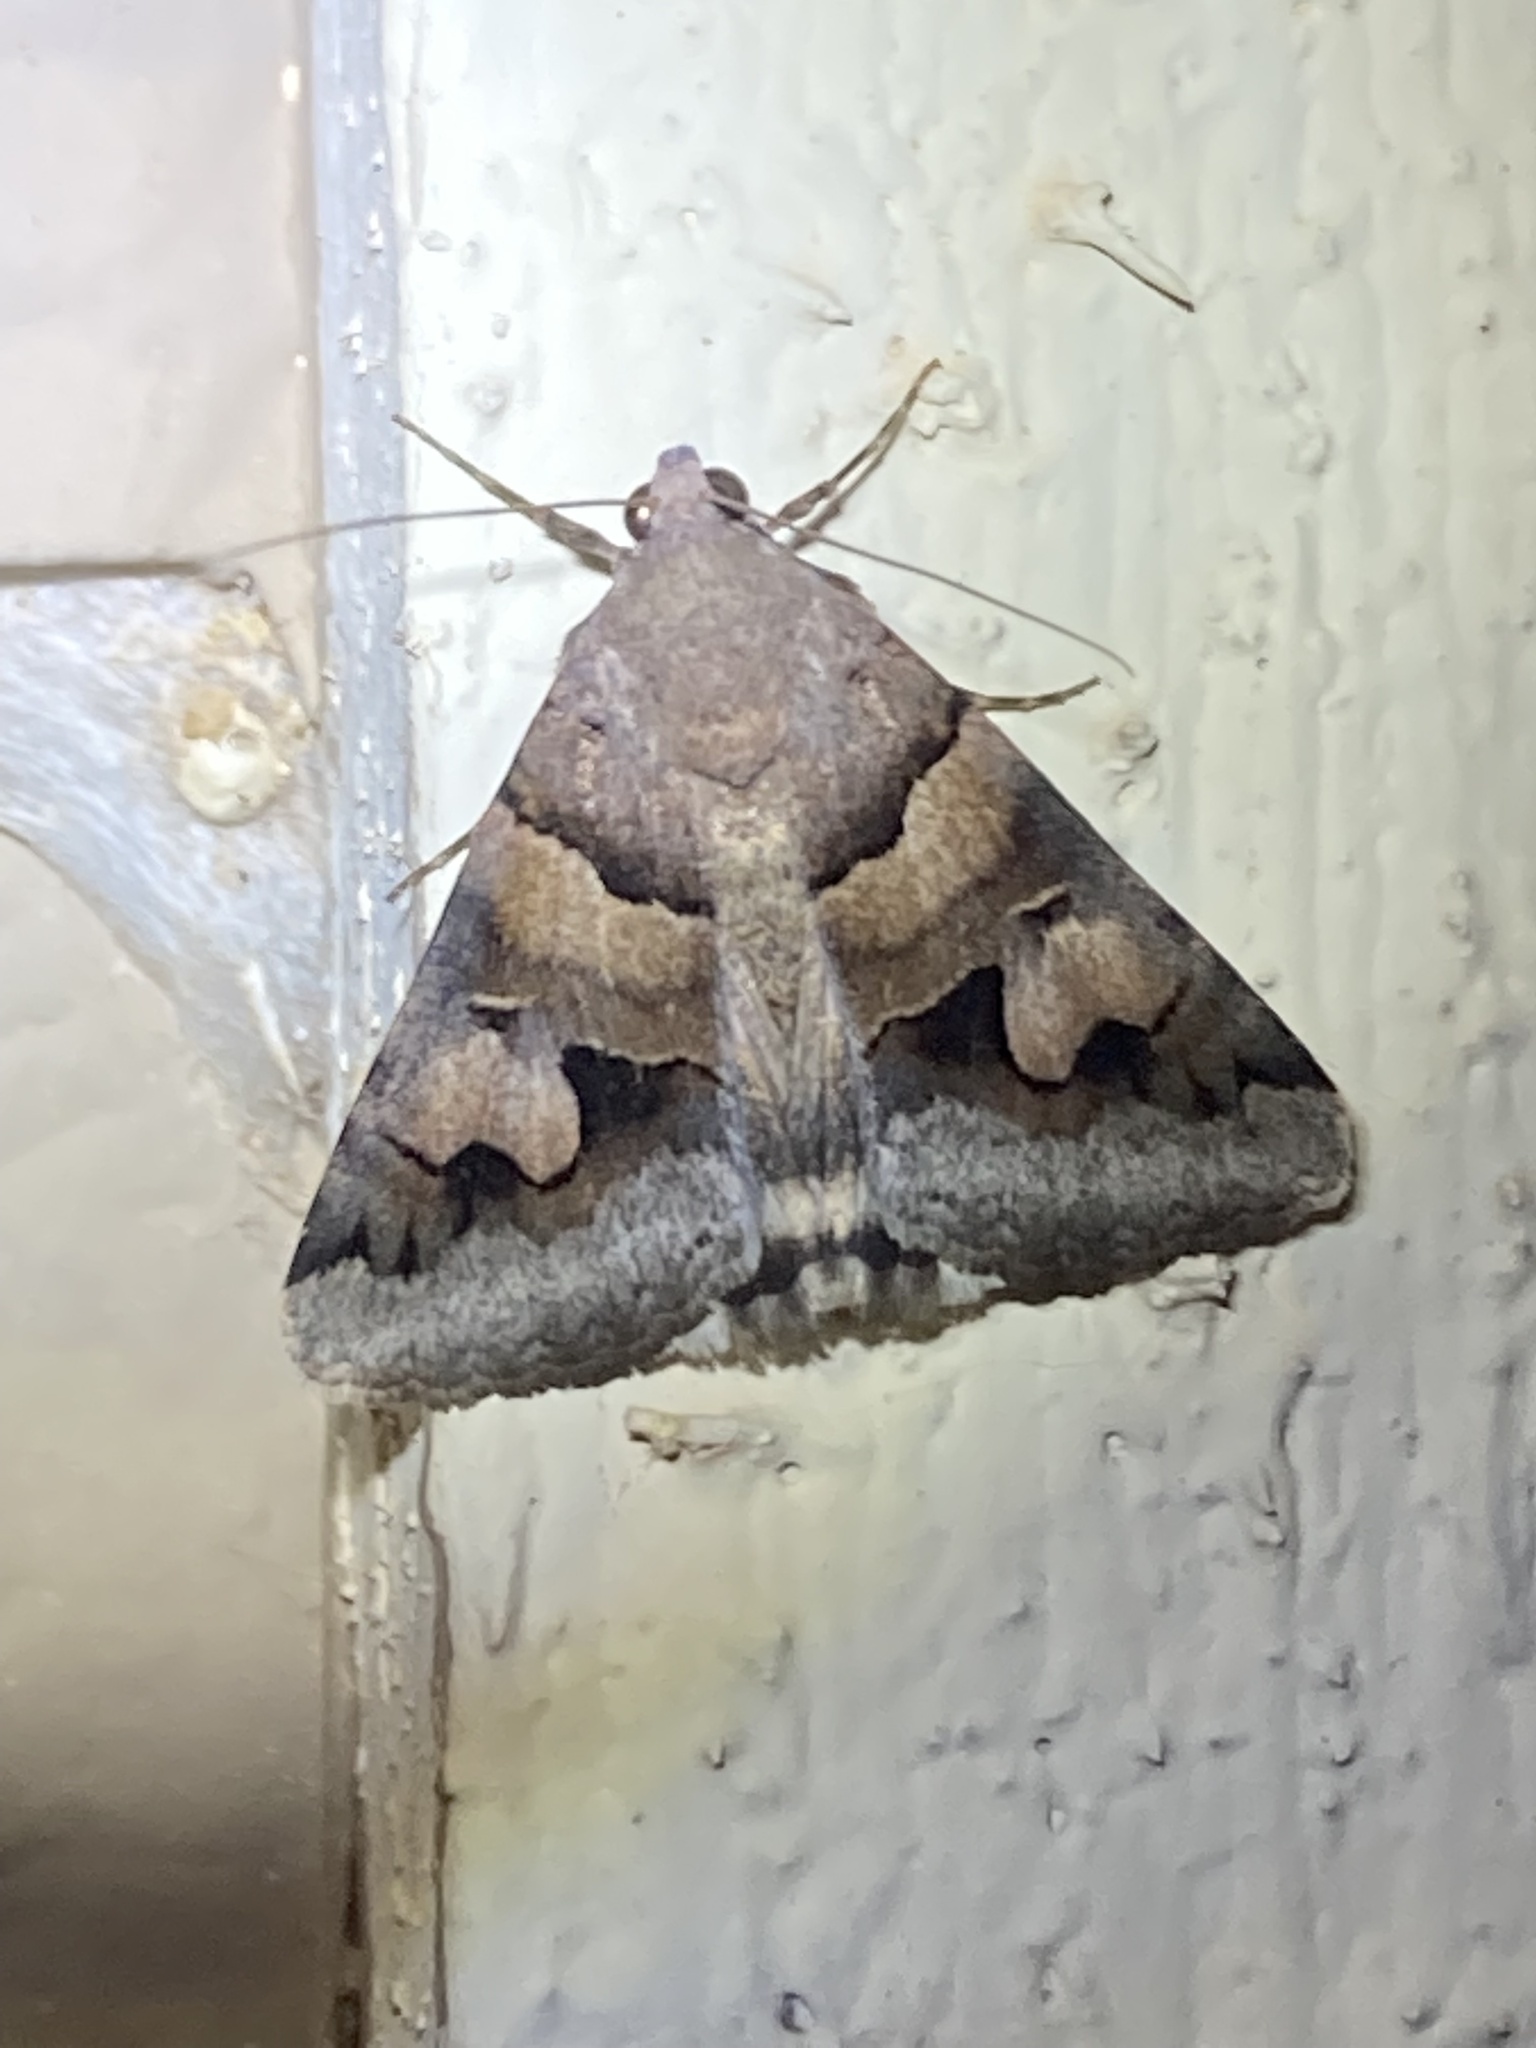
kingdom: Animalia
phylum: Arthropoda
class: Insecta
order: Lepidoptera
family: Erebidae
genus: Drasteria
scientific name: Drasteria pallescens
